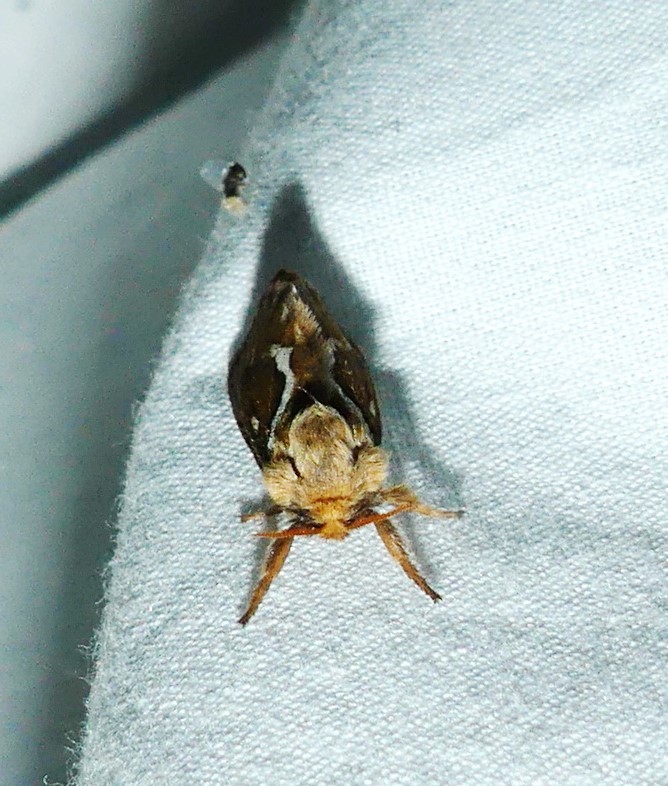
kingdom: Animalia
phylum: Arthropoda
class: Insecta
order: Lepidoptera
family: Hepialidae
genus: Korscheltellus
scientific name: Korscheltellus lupulina
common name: Common swift
